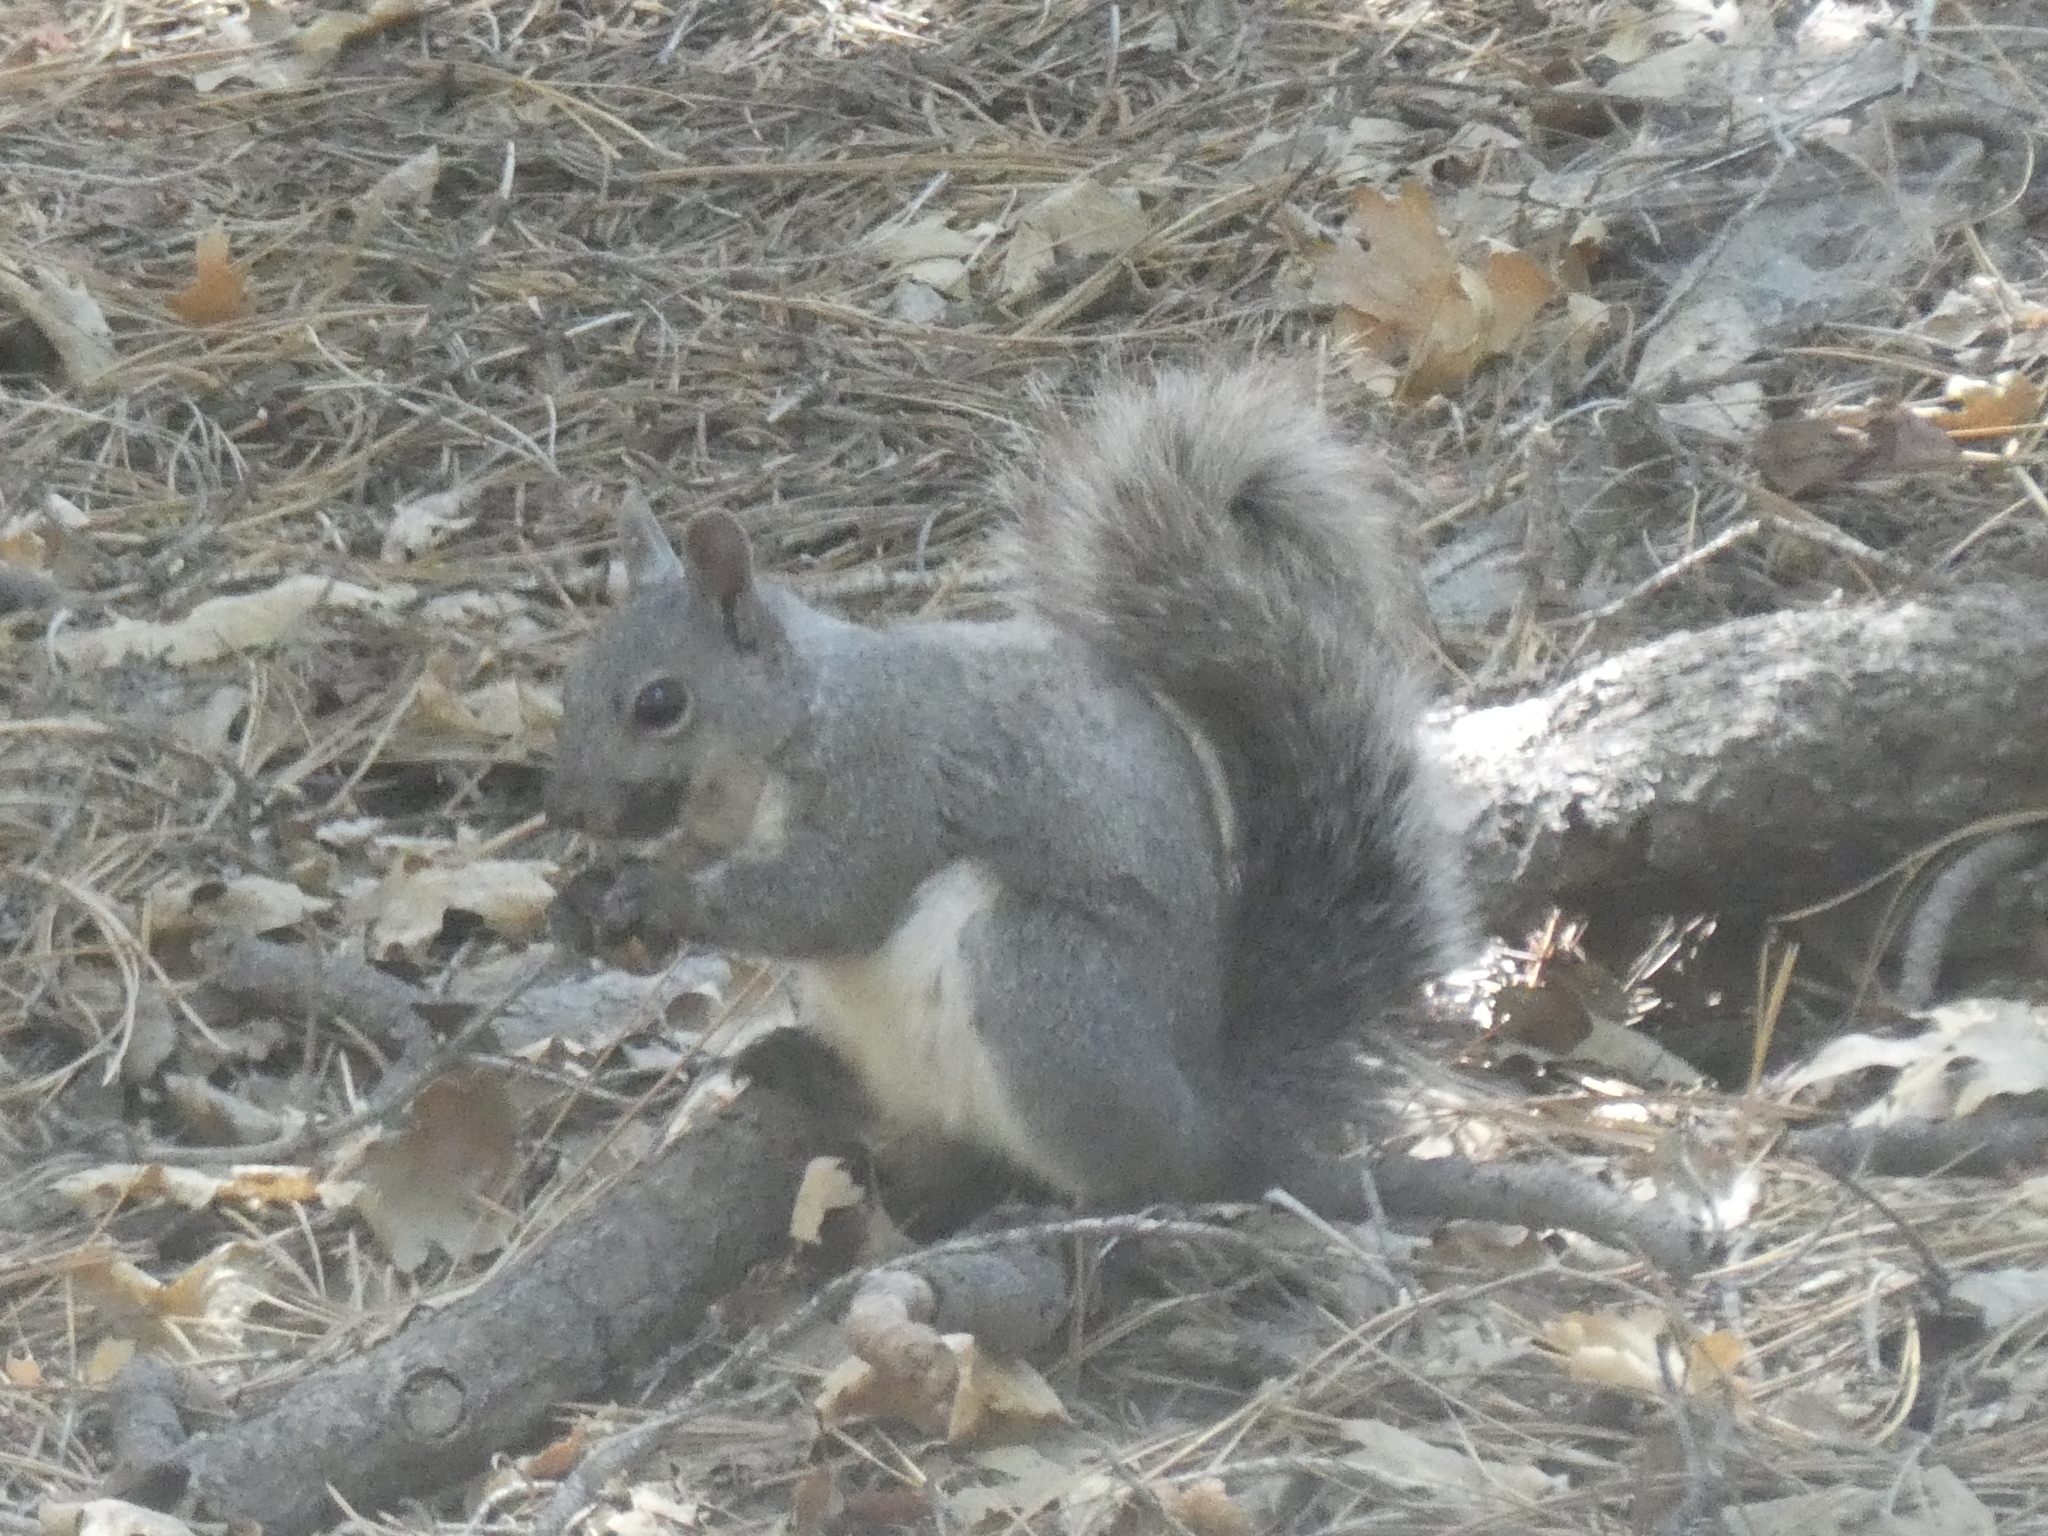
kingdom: Animalia
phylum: Chordata
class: Mammalia
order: Rodentia
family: Sciuridae
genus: Sciurus
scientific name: Sciurus griseus
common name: Western gray squirrel
